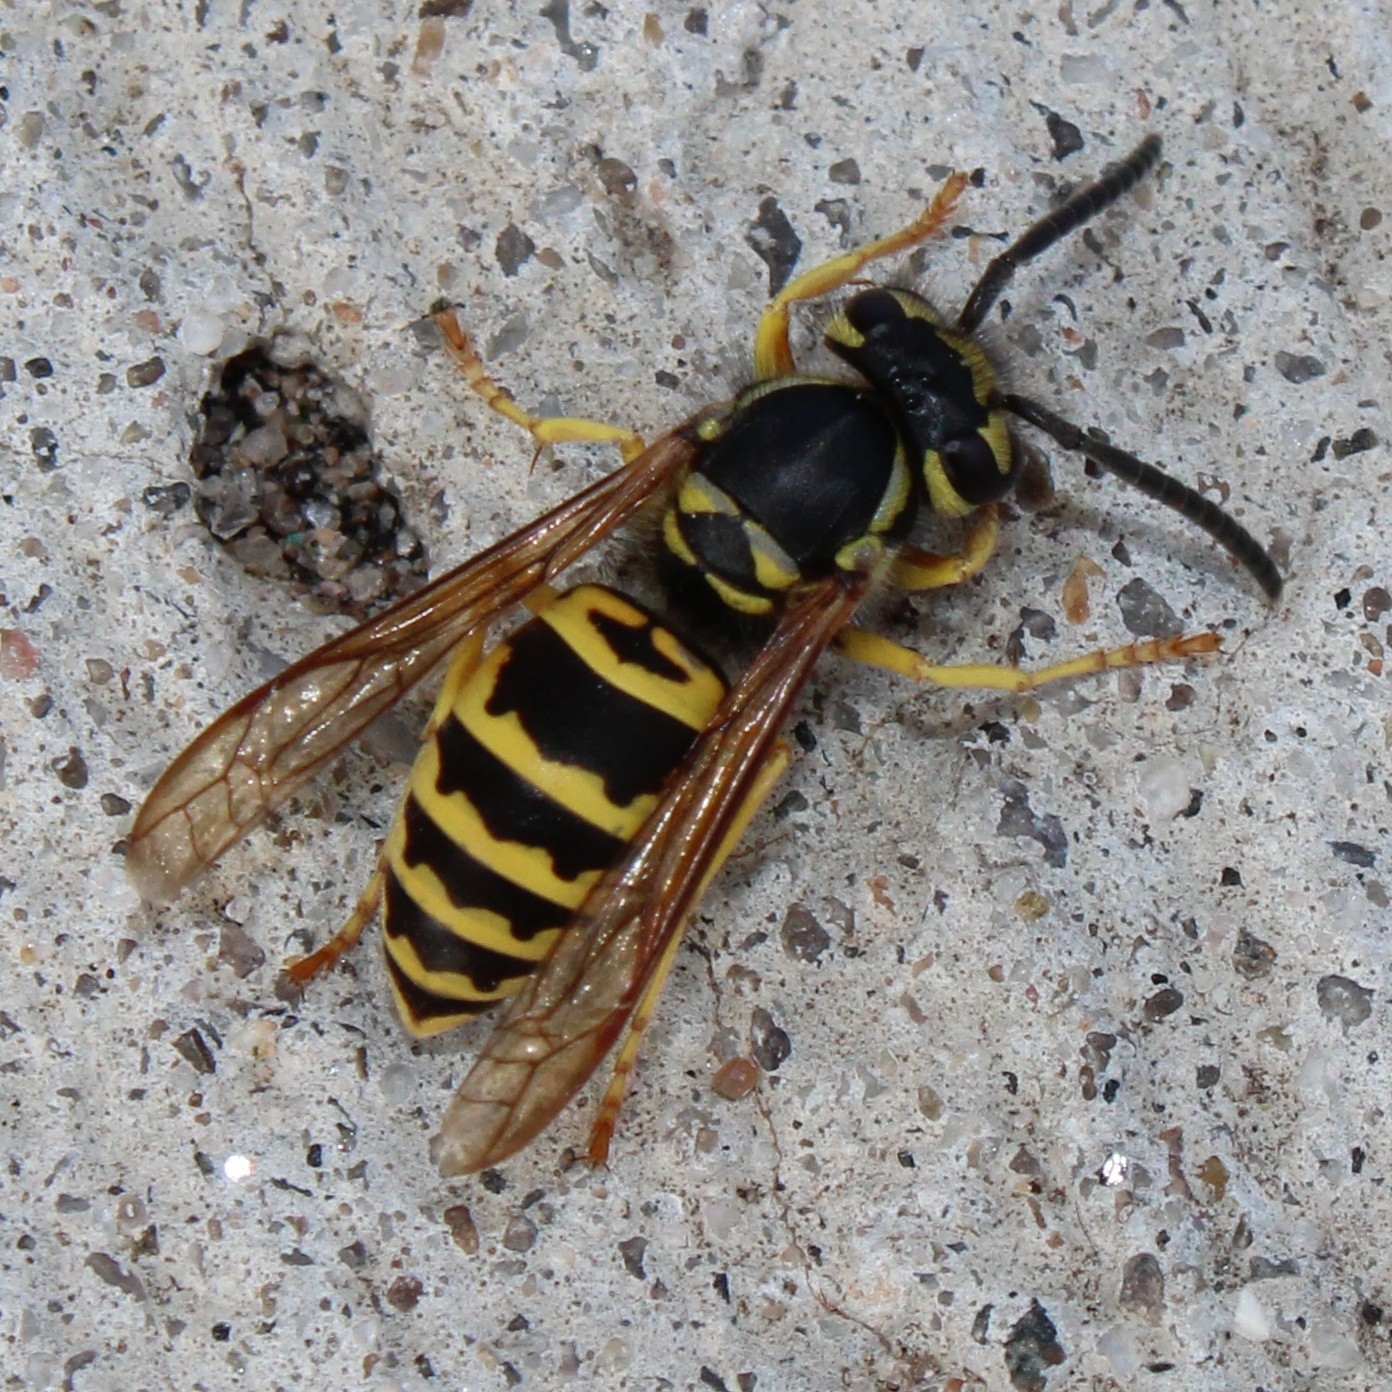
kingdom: Animalia
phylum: Arthropoda
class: Insecta
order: Hymenoptera
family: Vespidae
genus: Vespula
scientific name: Vespula maculifrons
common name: Eastern yellowjacket
